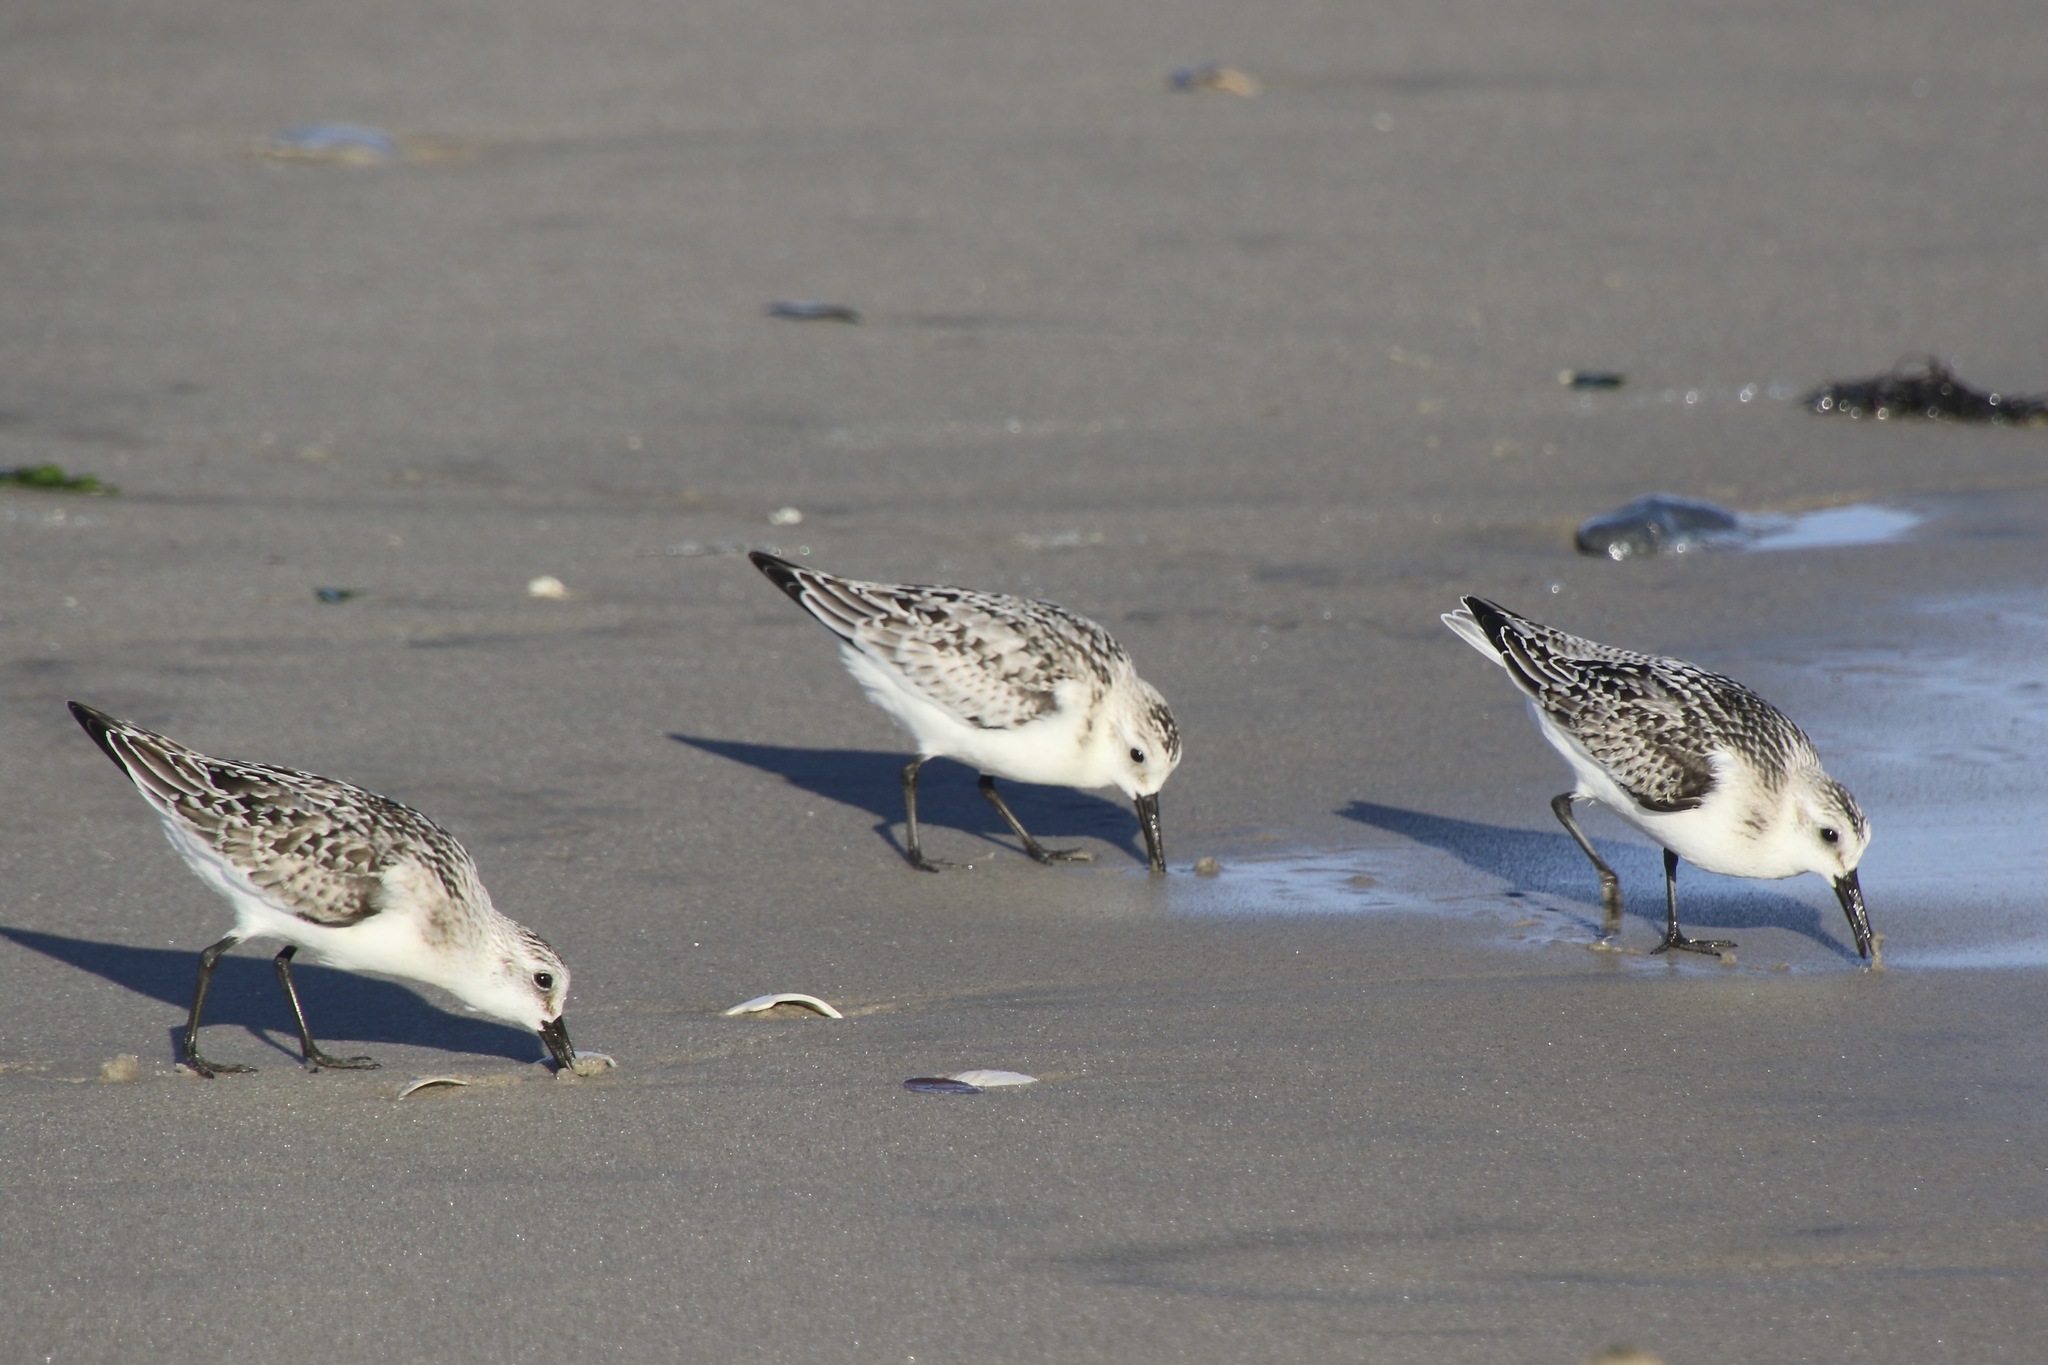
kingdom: Animalia
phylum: Chordata
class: Aves
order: Charadriiformes
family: Scolopacidae
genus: Calidris
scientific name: Calidris alba
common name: Sanderling
